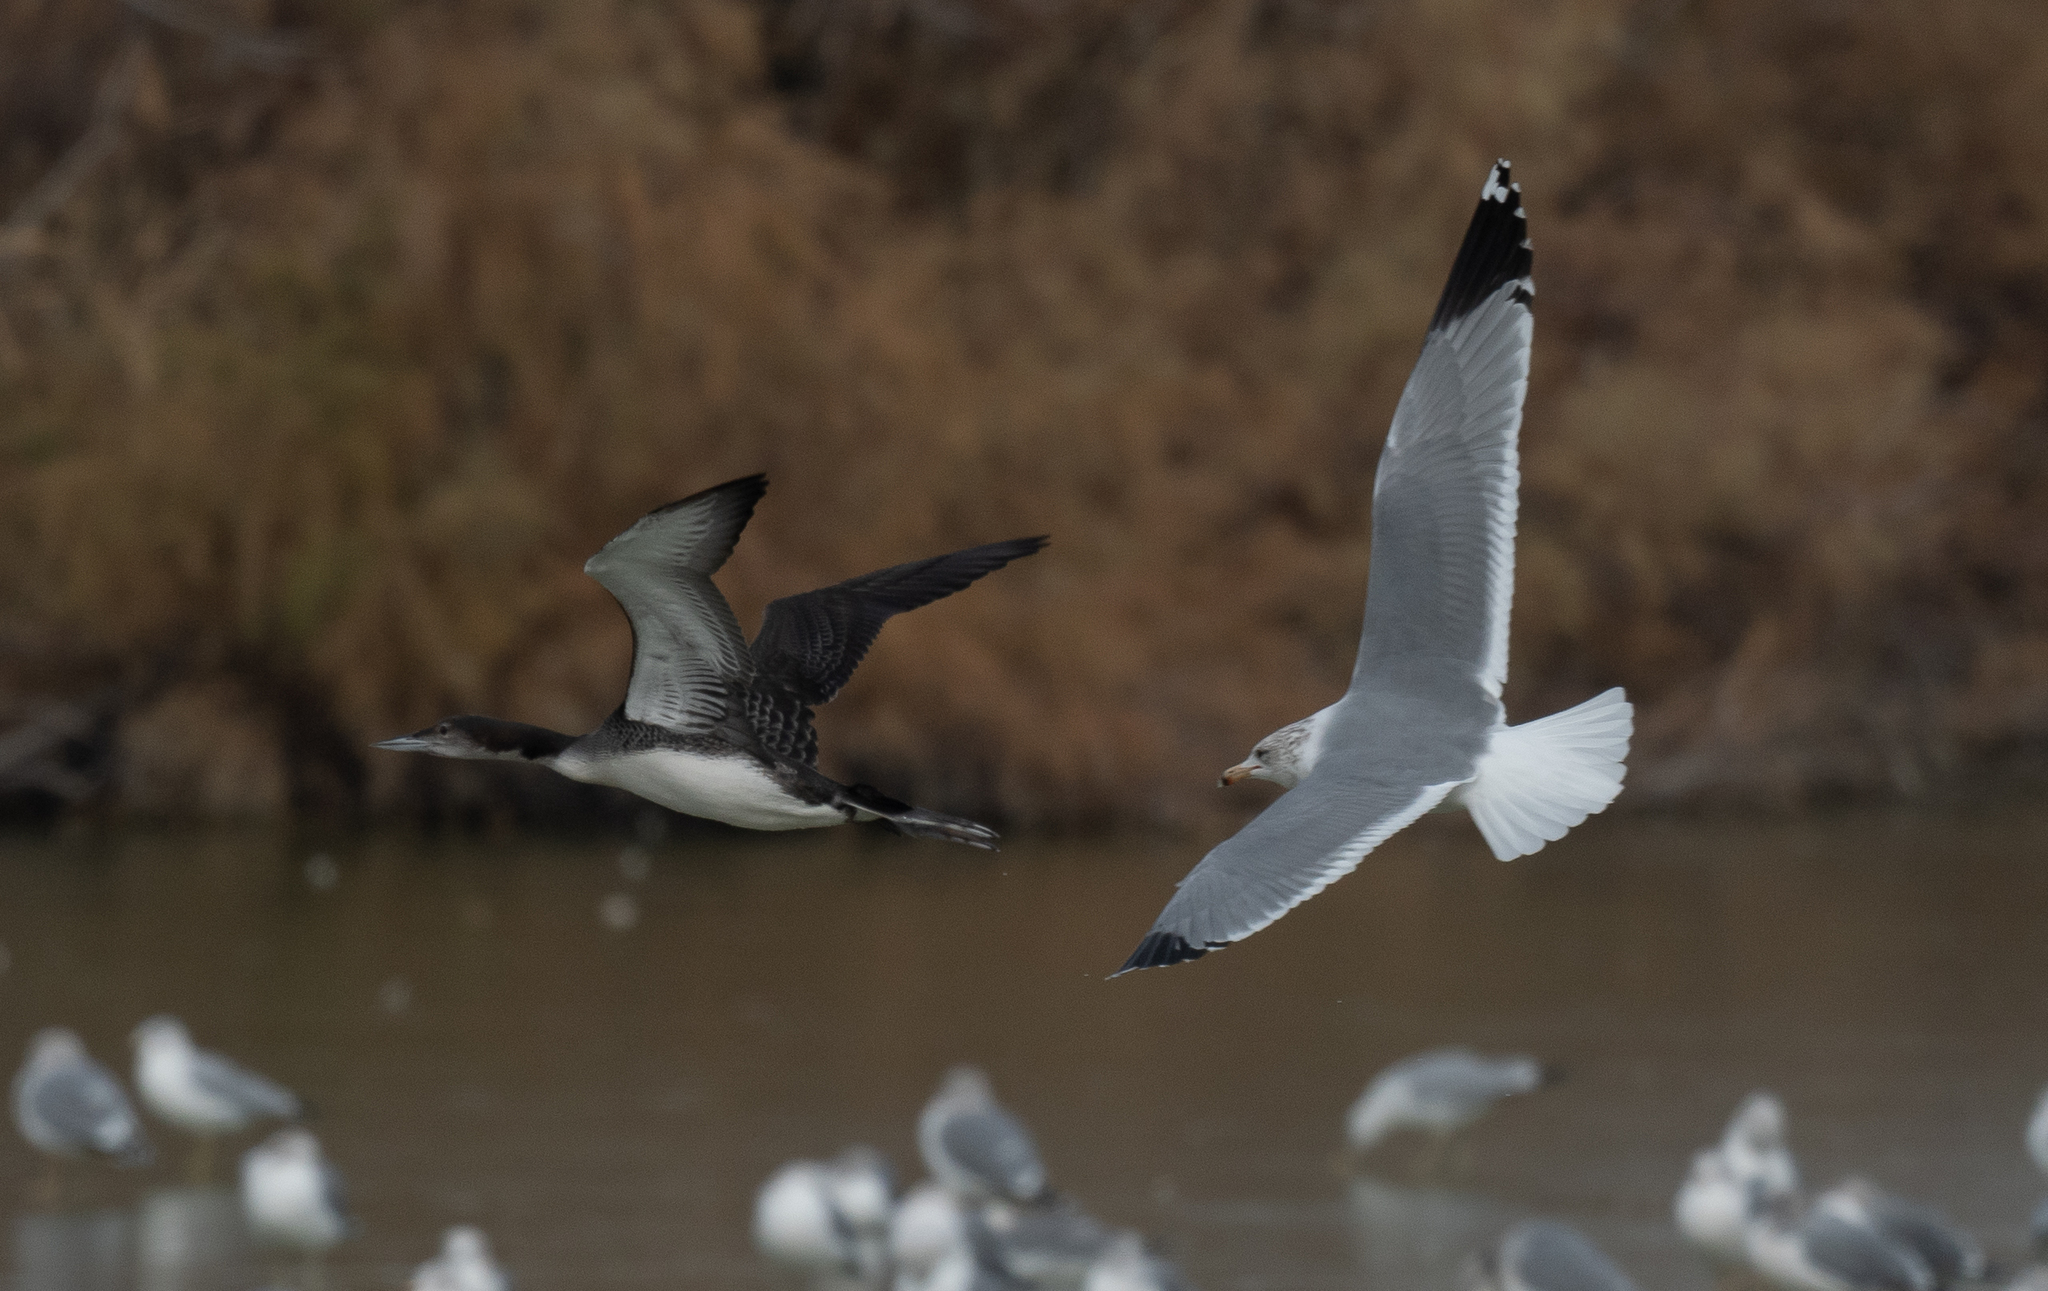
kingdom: Animalia
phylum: Chordata
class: Aves
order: Charadriiformes
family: Laridae
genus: Larus
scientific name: Larus californicus
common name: California gull
